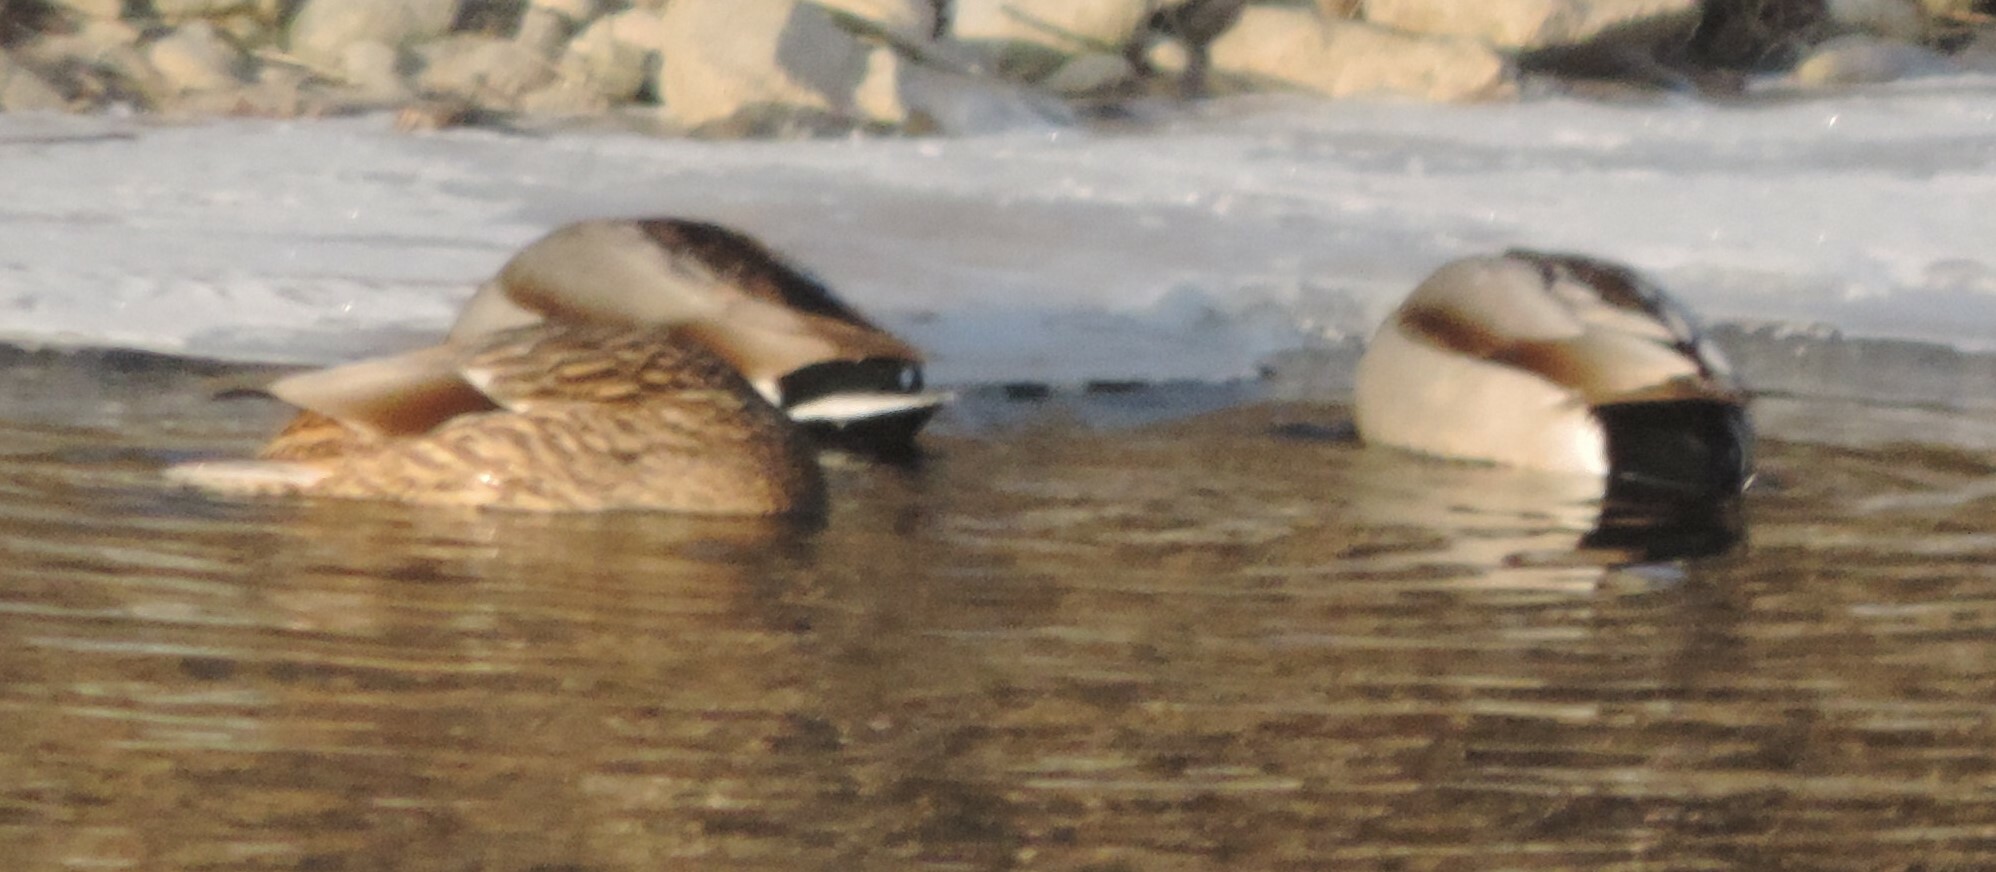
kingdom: Animalia
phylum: Chordata
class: Aves
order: Anseriformes
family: Anatidae
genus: Anas
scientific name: Anas platyrhynchos
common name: Mallard
